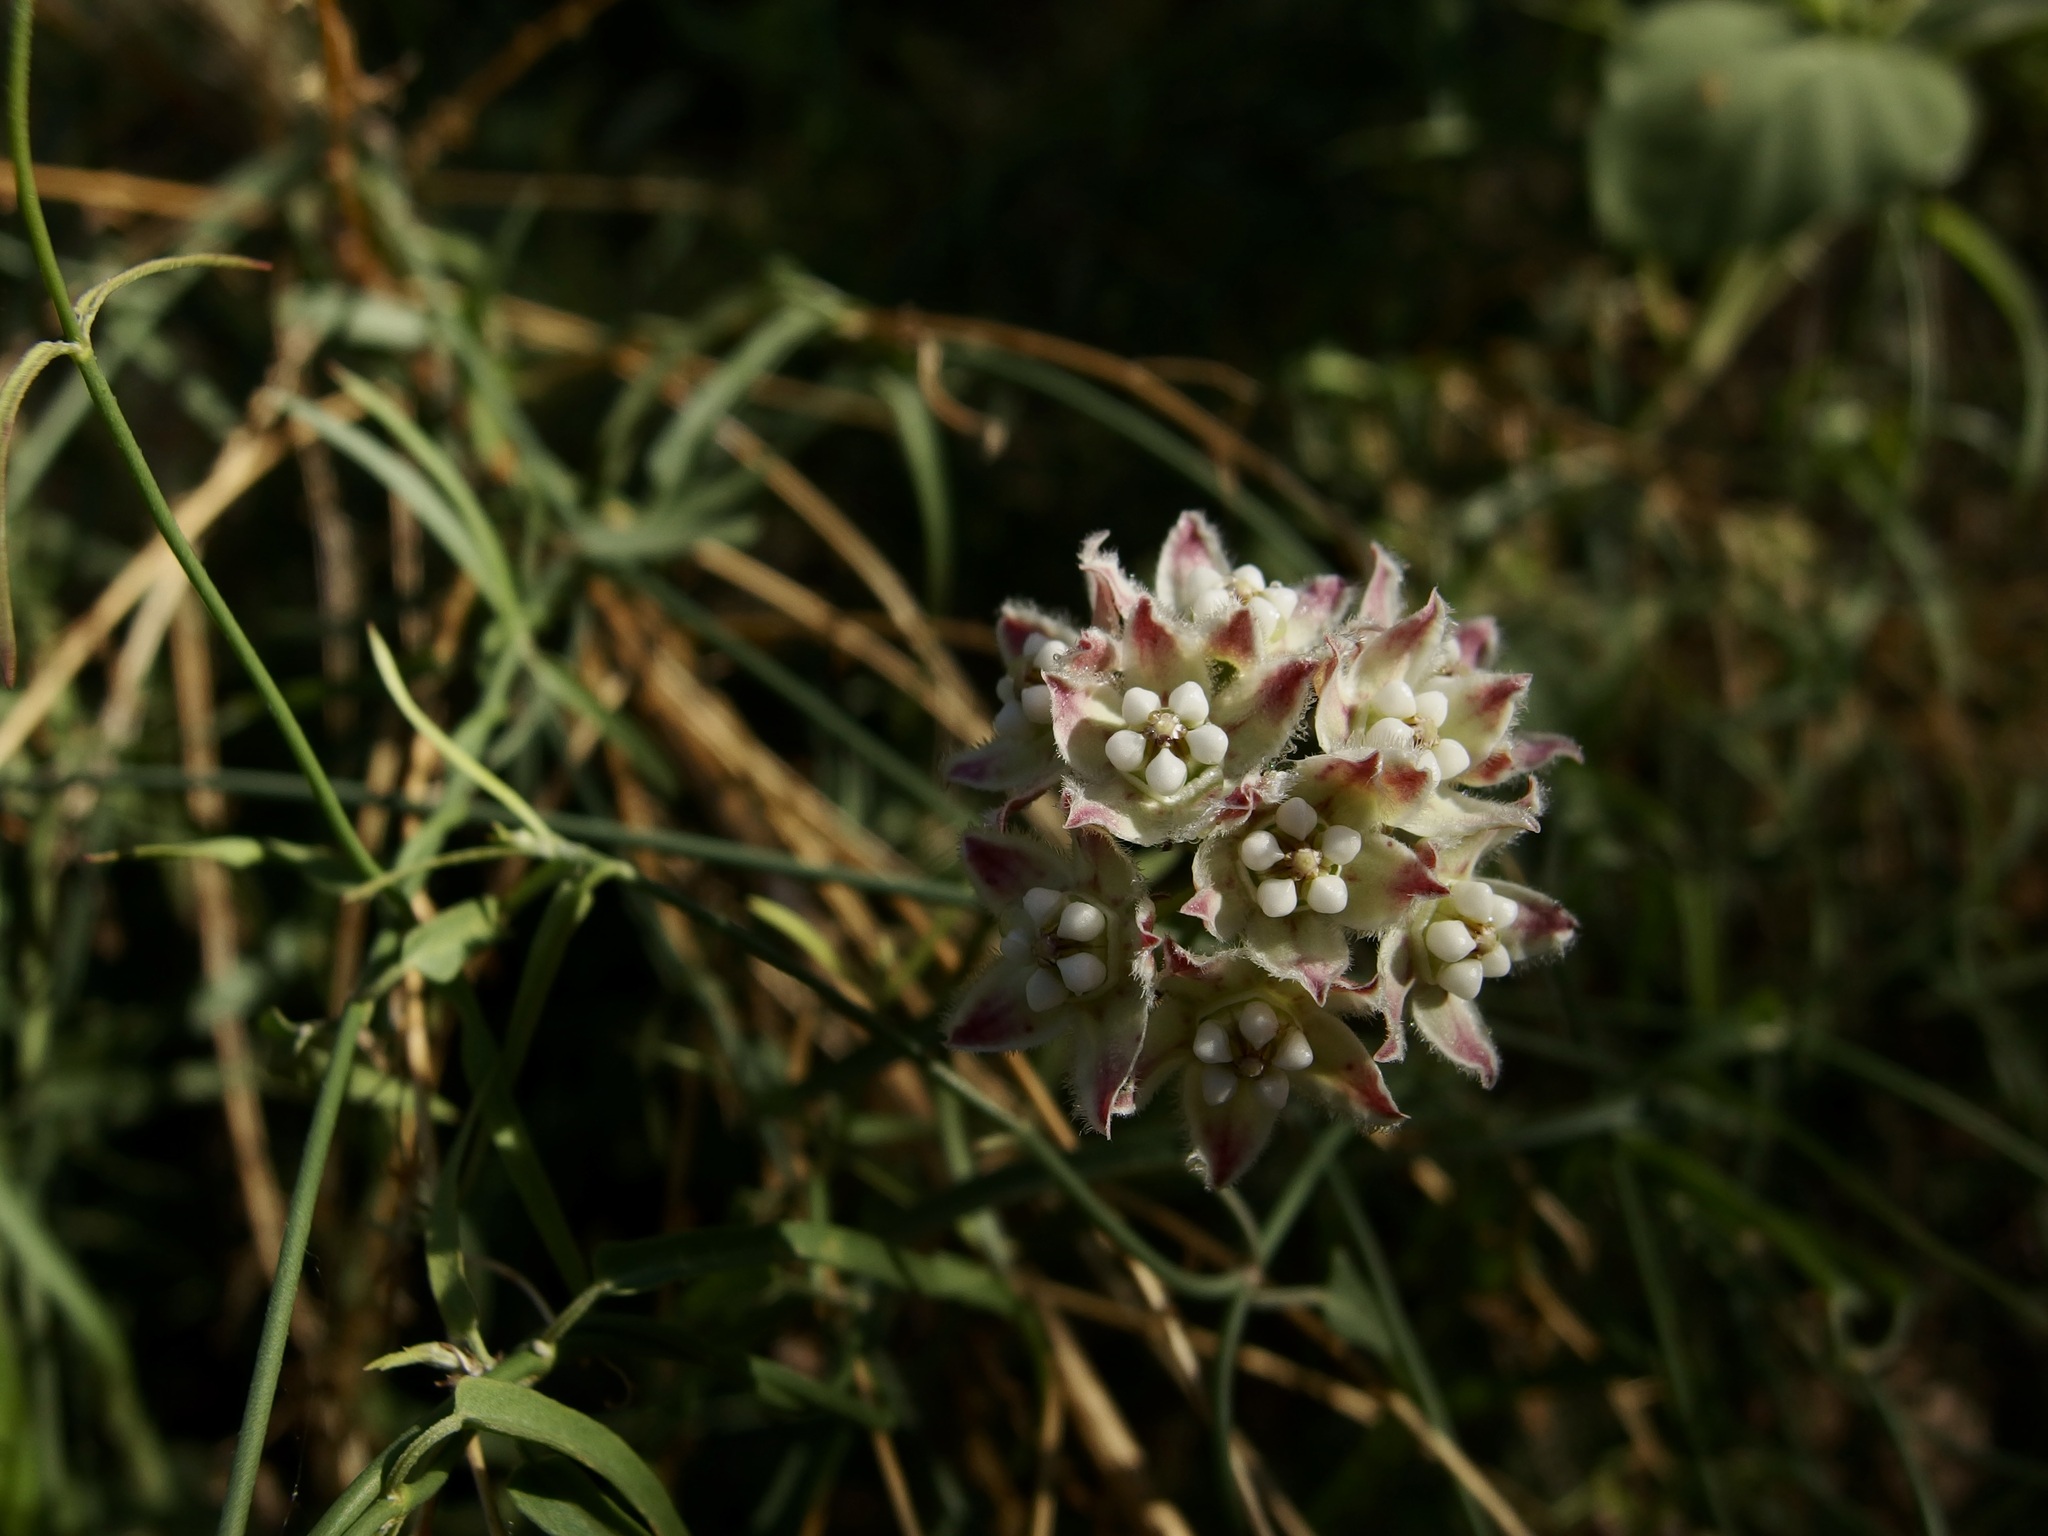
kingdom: Plantae
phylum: Tracheophyta
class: Magnoliopsida
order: Gentianales
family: Apocynaceae
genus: Funastrum
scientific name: Funastrum heterophyllum
